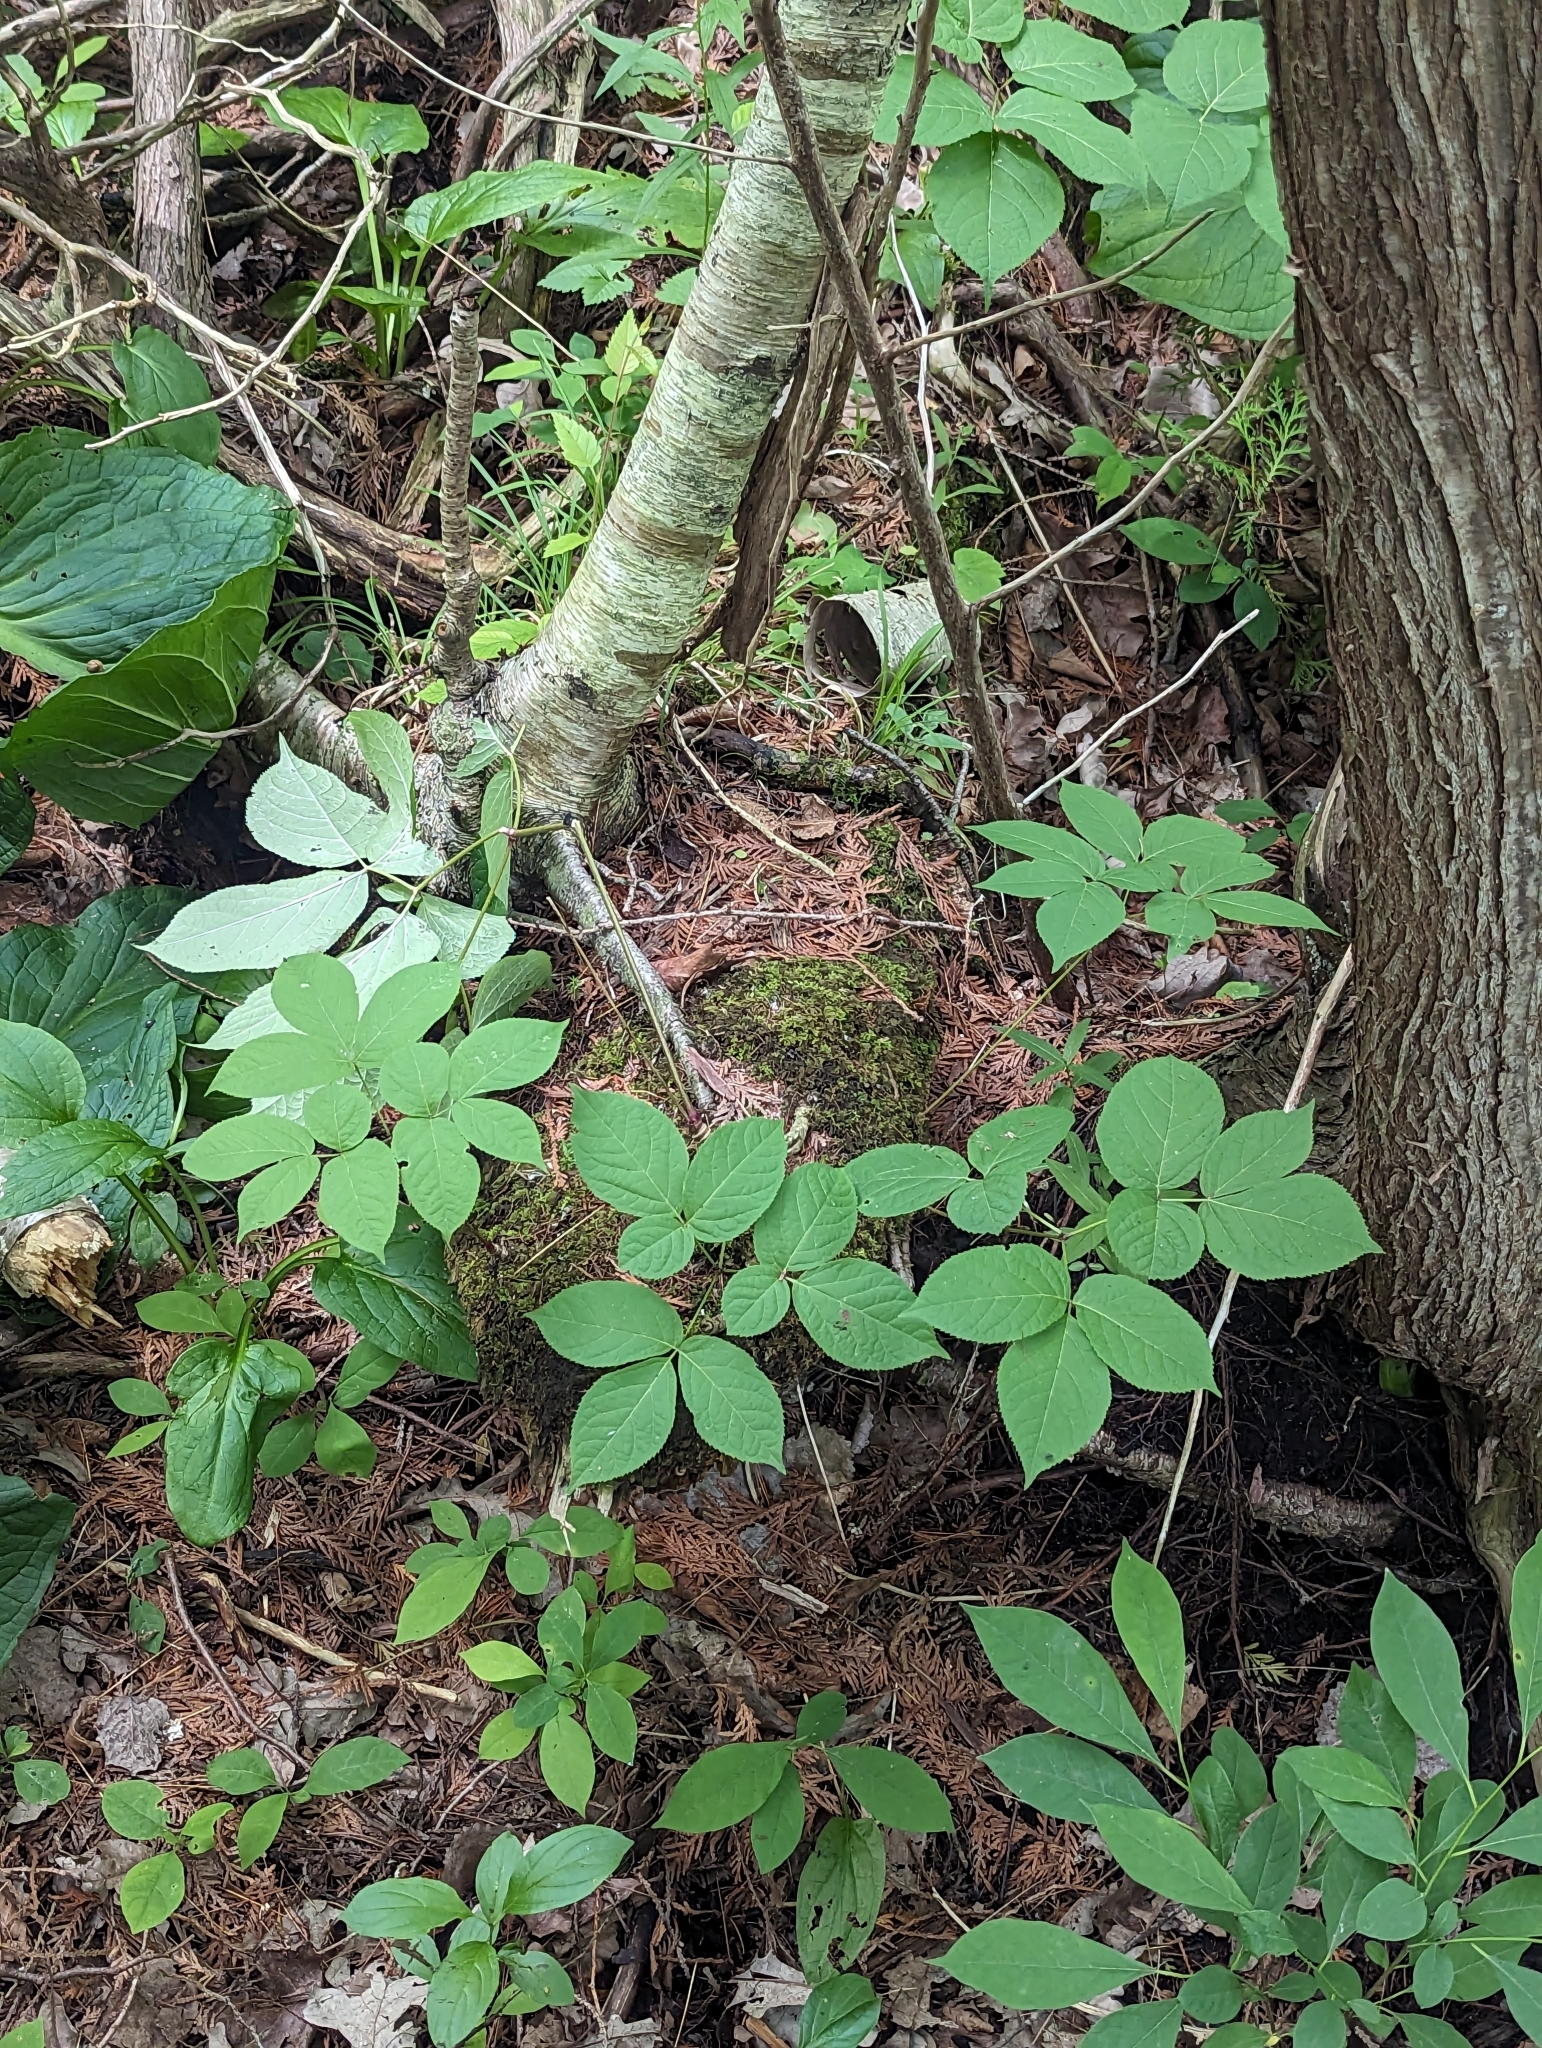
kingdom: Plantae
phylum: Tracheophyta
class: Magnoliopsida
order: Apiales
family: Araliaceae
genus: Aralia
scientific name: Aralia nudicaulis
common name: Wild sarsaparilla
